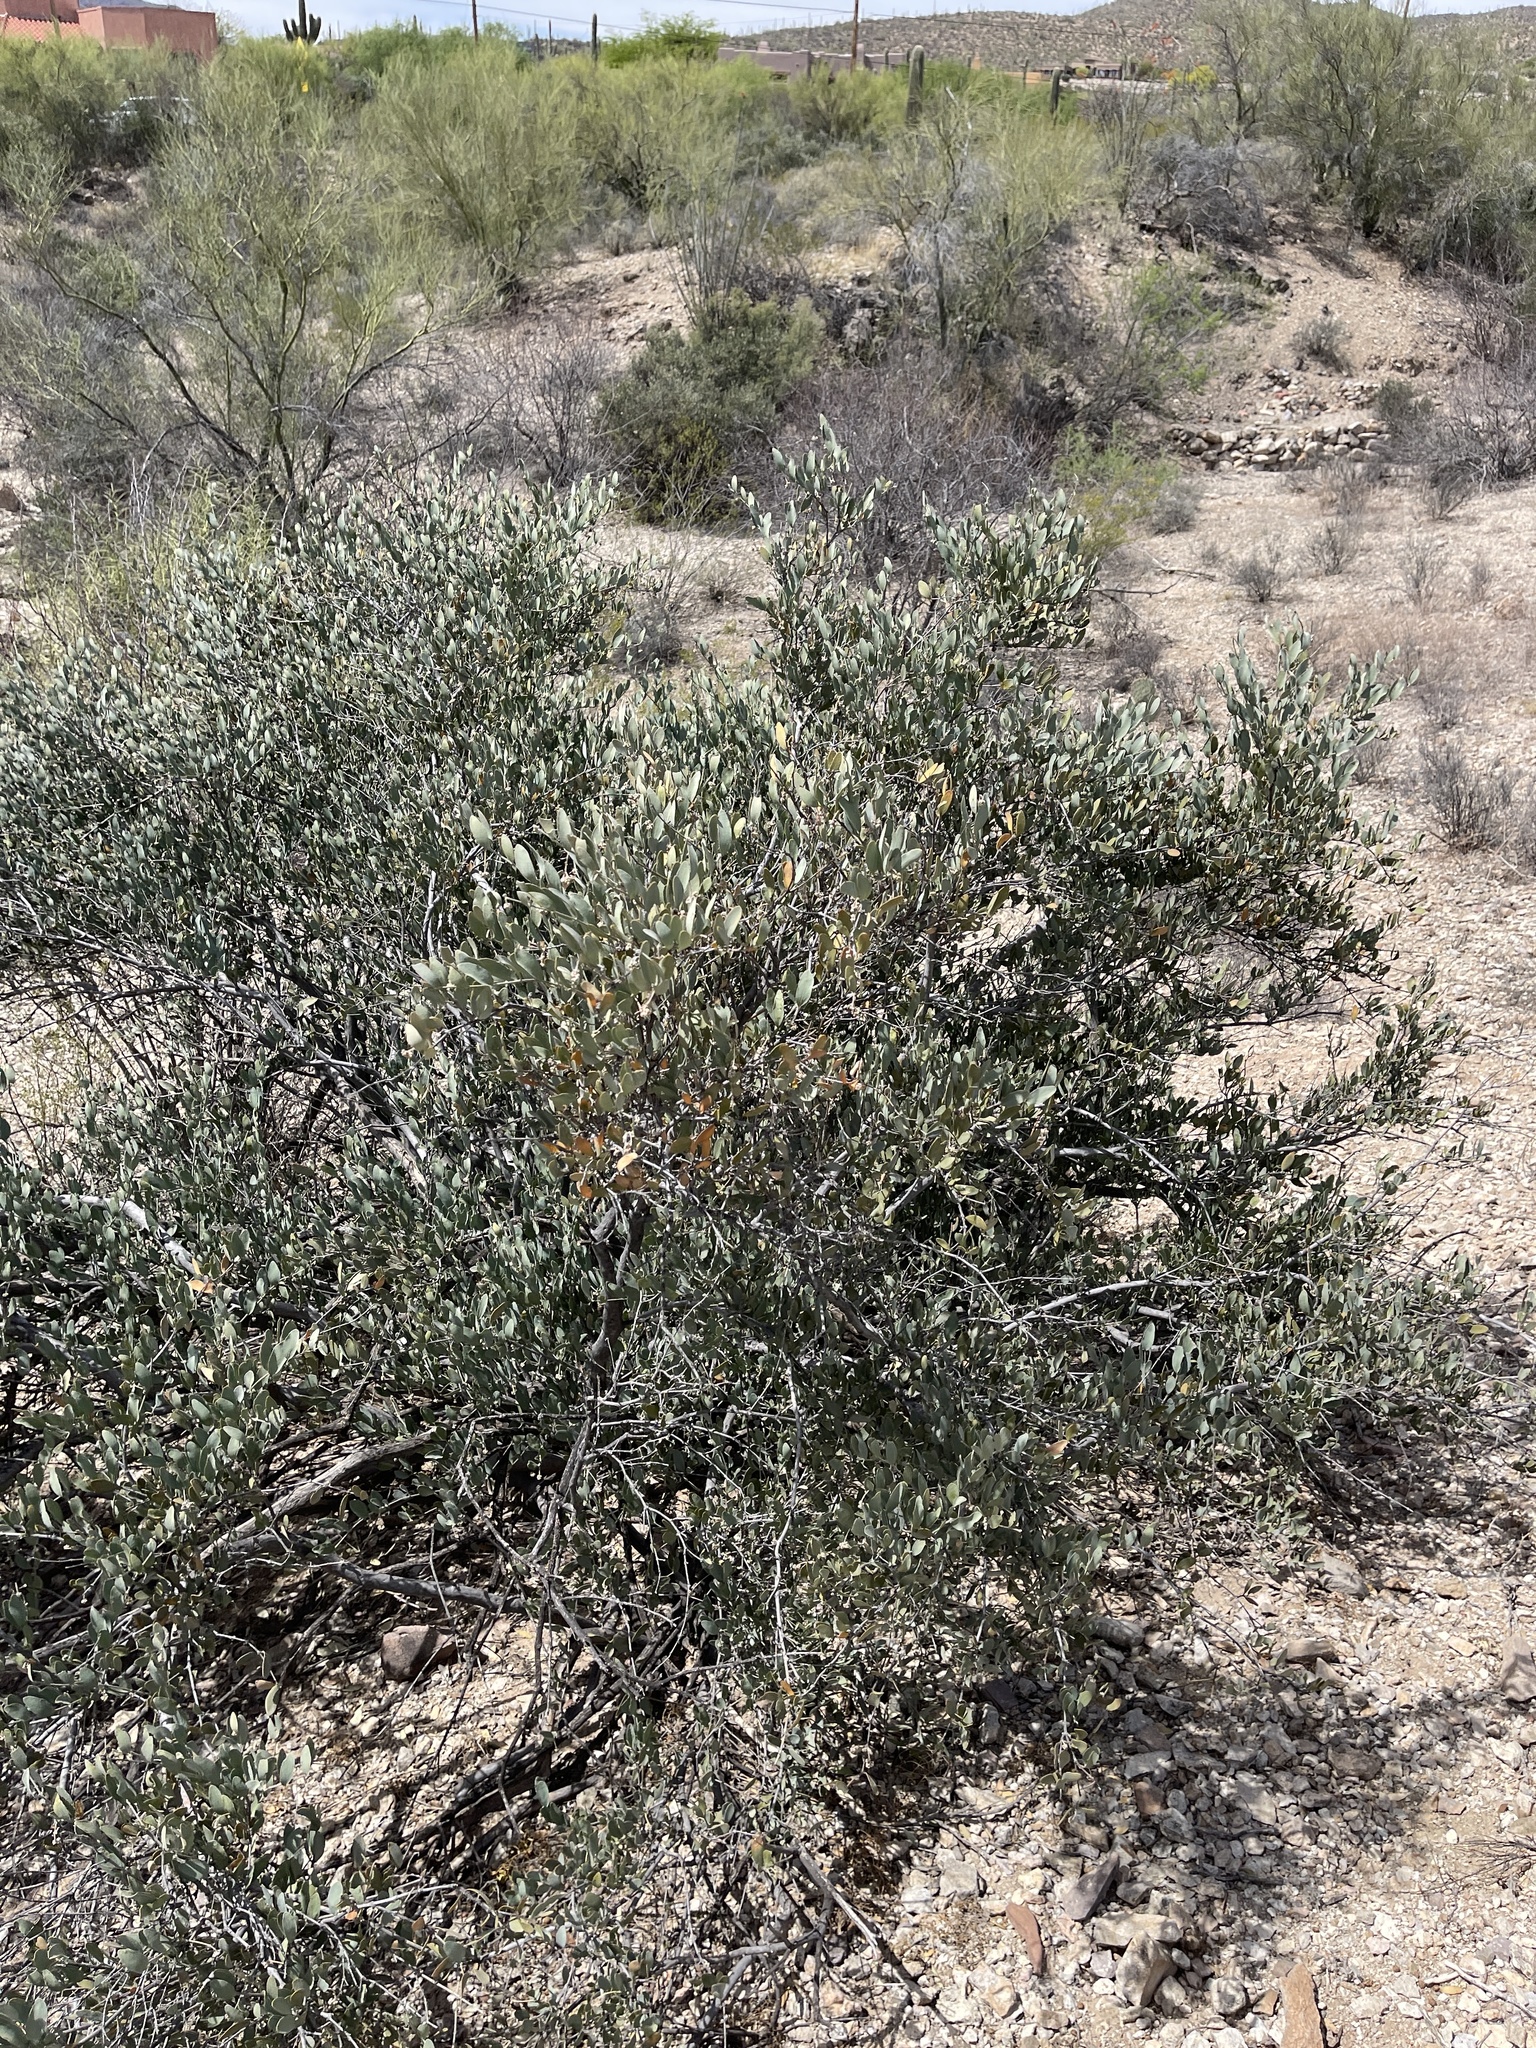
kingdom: Plantae
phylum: Tracheophyta
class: Magnoliopsida
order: Caryophyllales
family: Simmondsiaceae
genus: Simmondsia
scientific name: Simmondsia chinensis
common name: Jojoba
